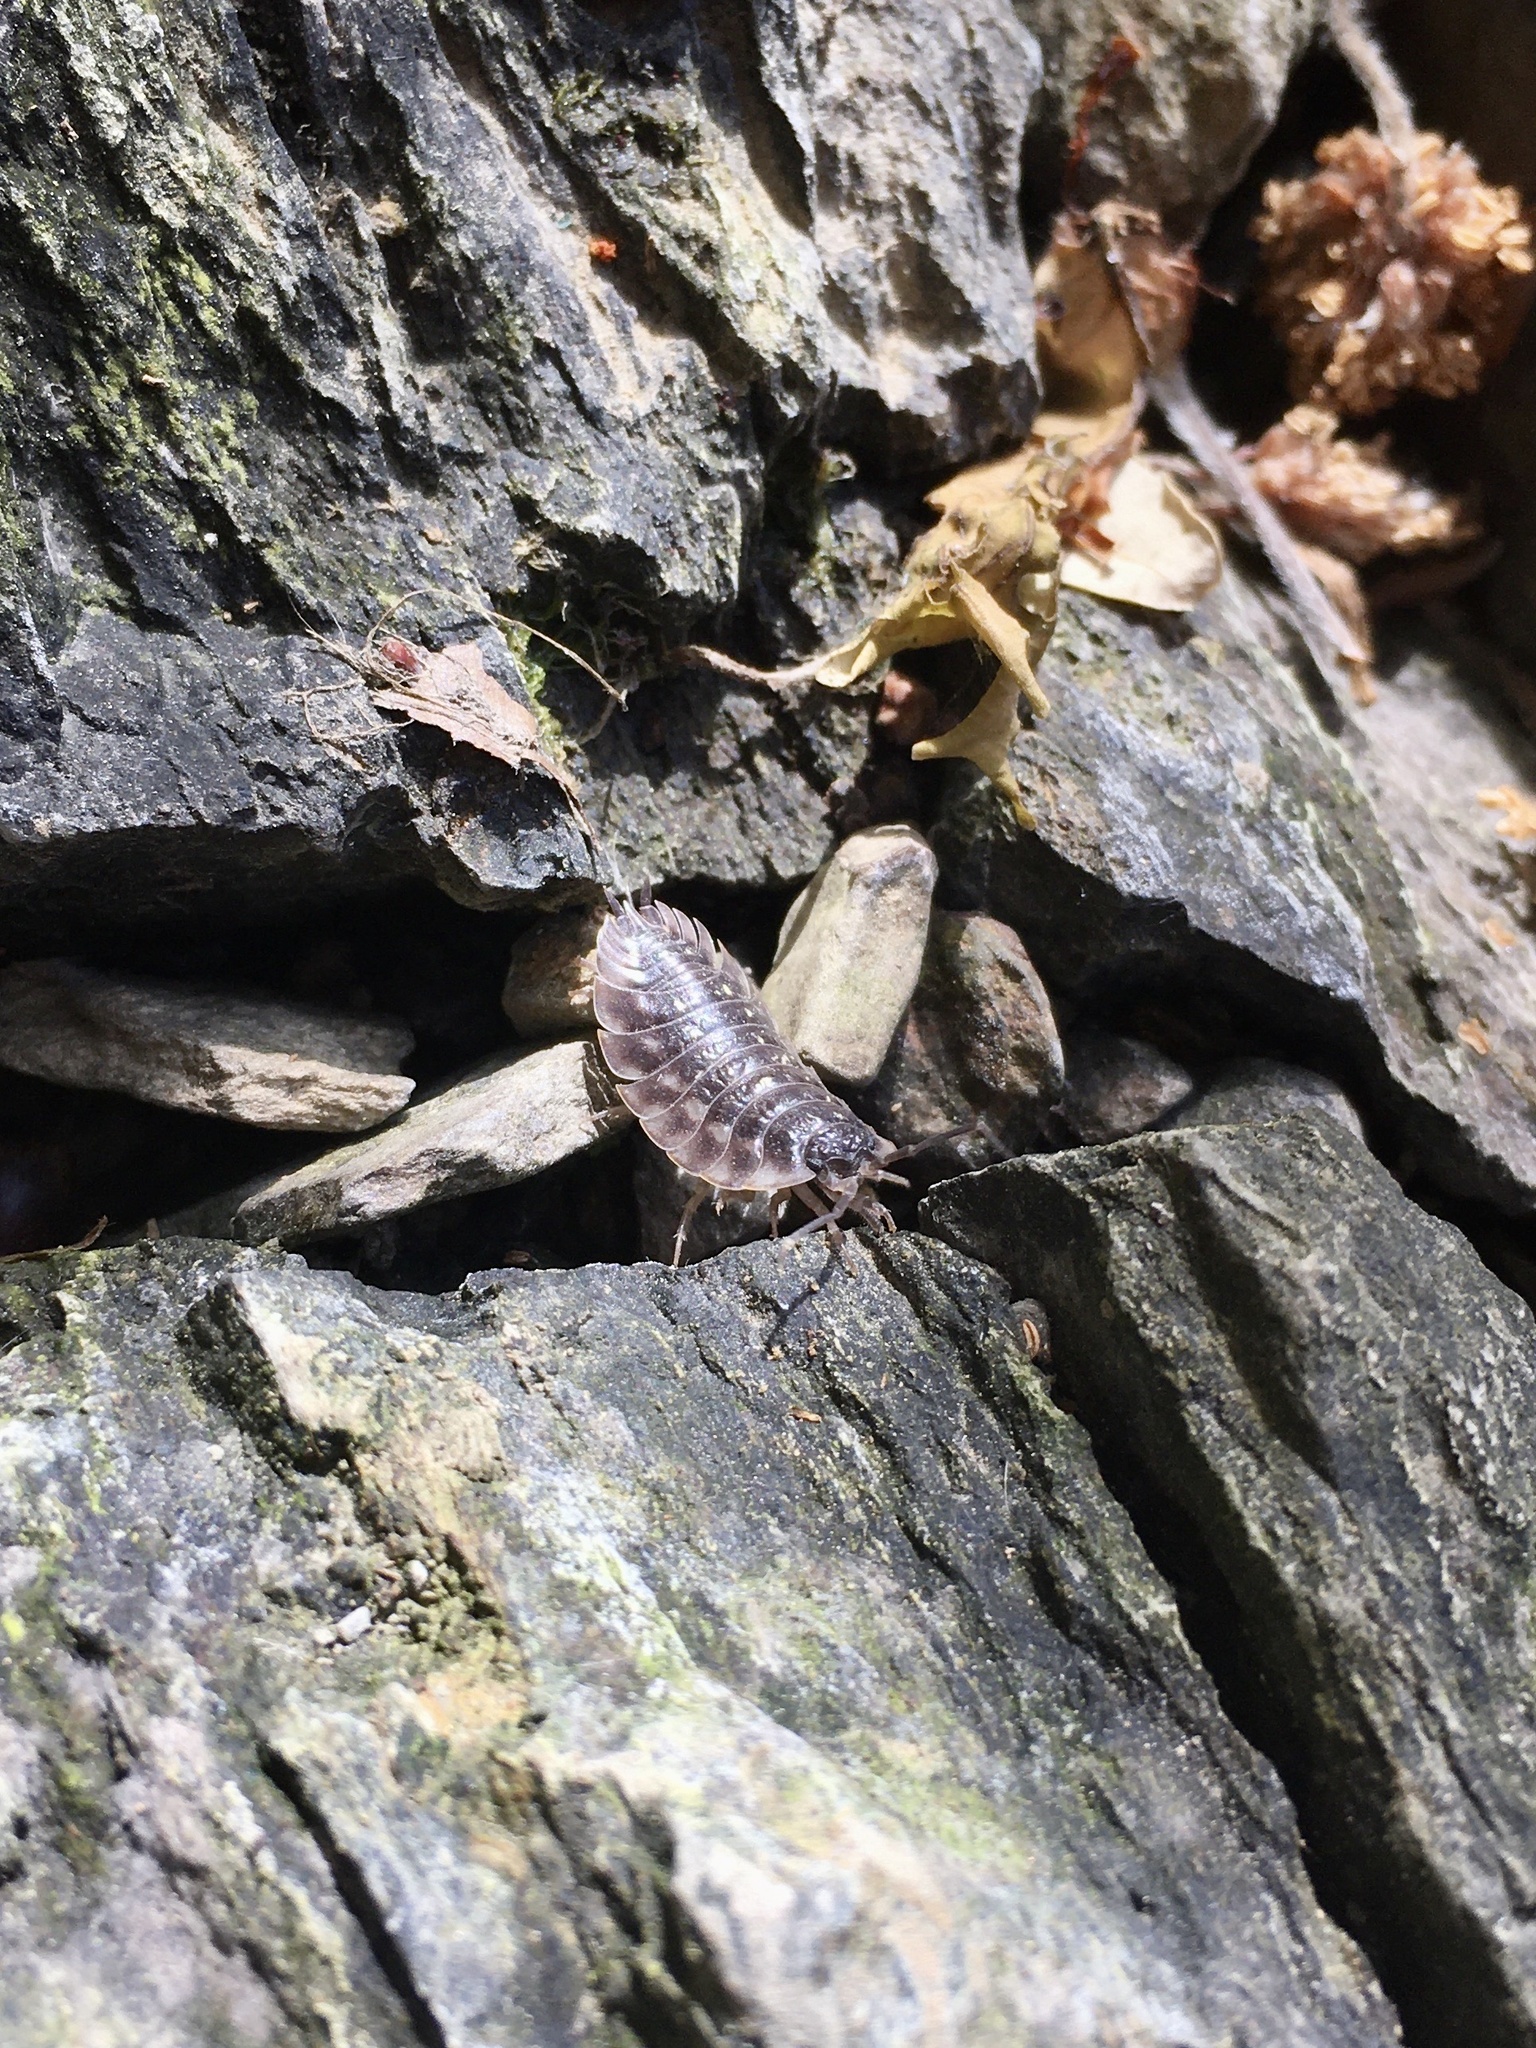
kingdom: Animalia
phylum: Arthropoda
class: Malacostraca
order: Isopoda
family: Oniscidae
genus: Oniscus
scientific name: Oniscus asellus
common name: Common shiny woodlouse
